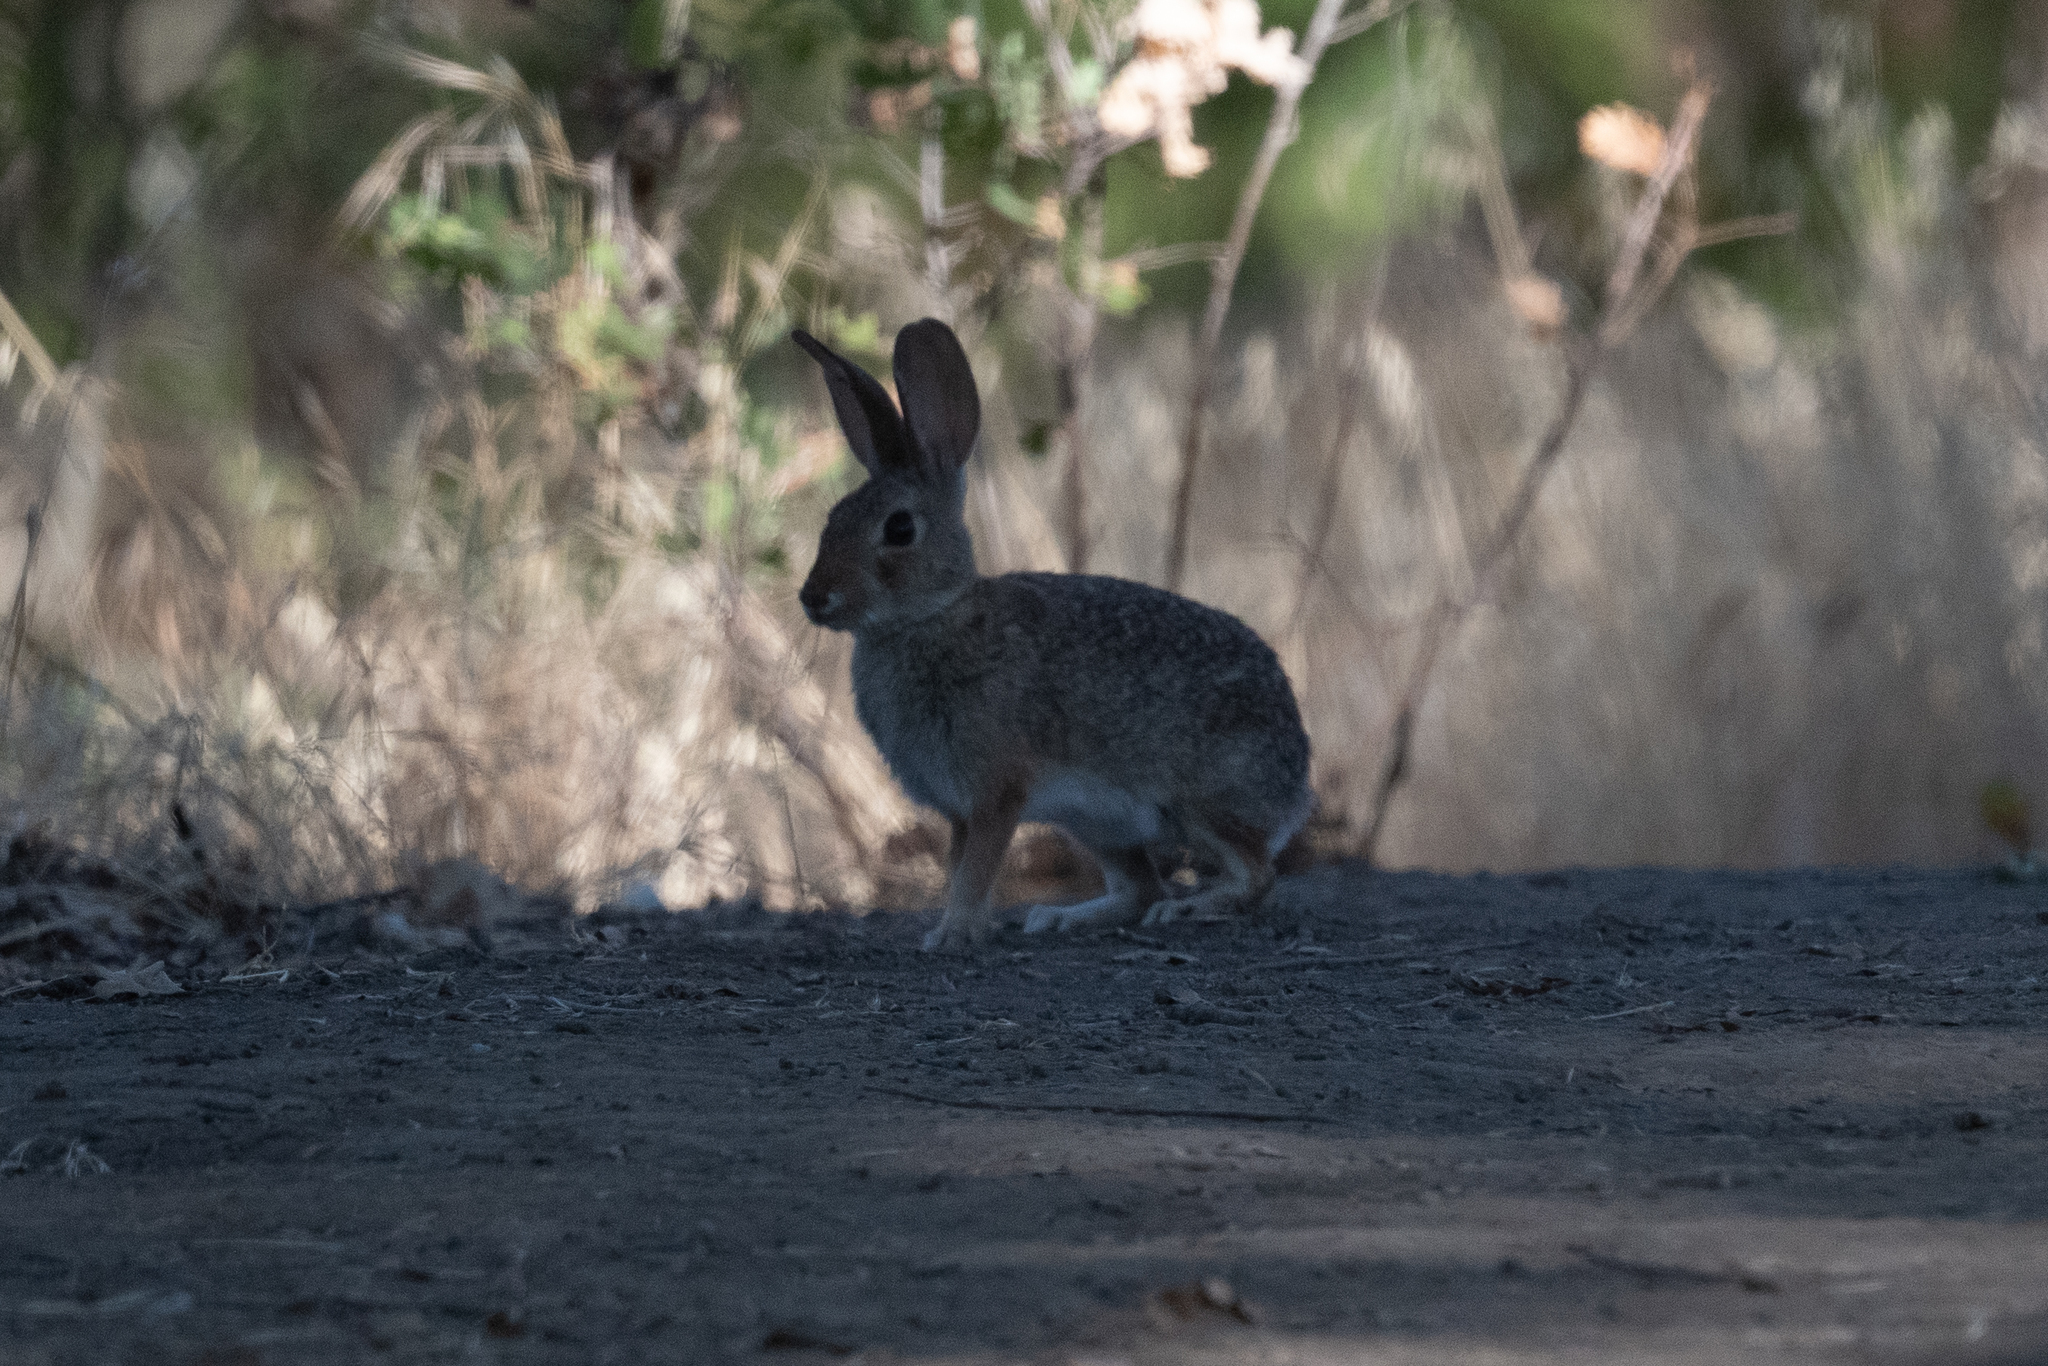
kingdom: Animalia
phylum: Chordata
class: Mammalia
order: Lagomorpha
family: Leporidae
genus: Sylvilagus
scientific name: Sylvilagus audubonii
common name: Desert cottontail
